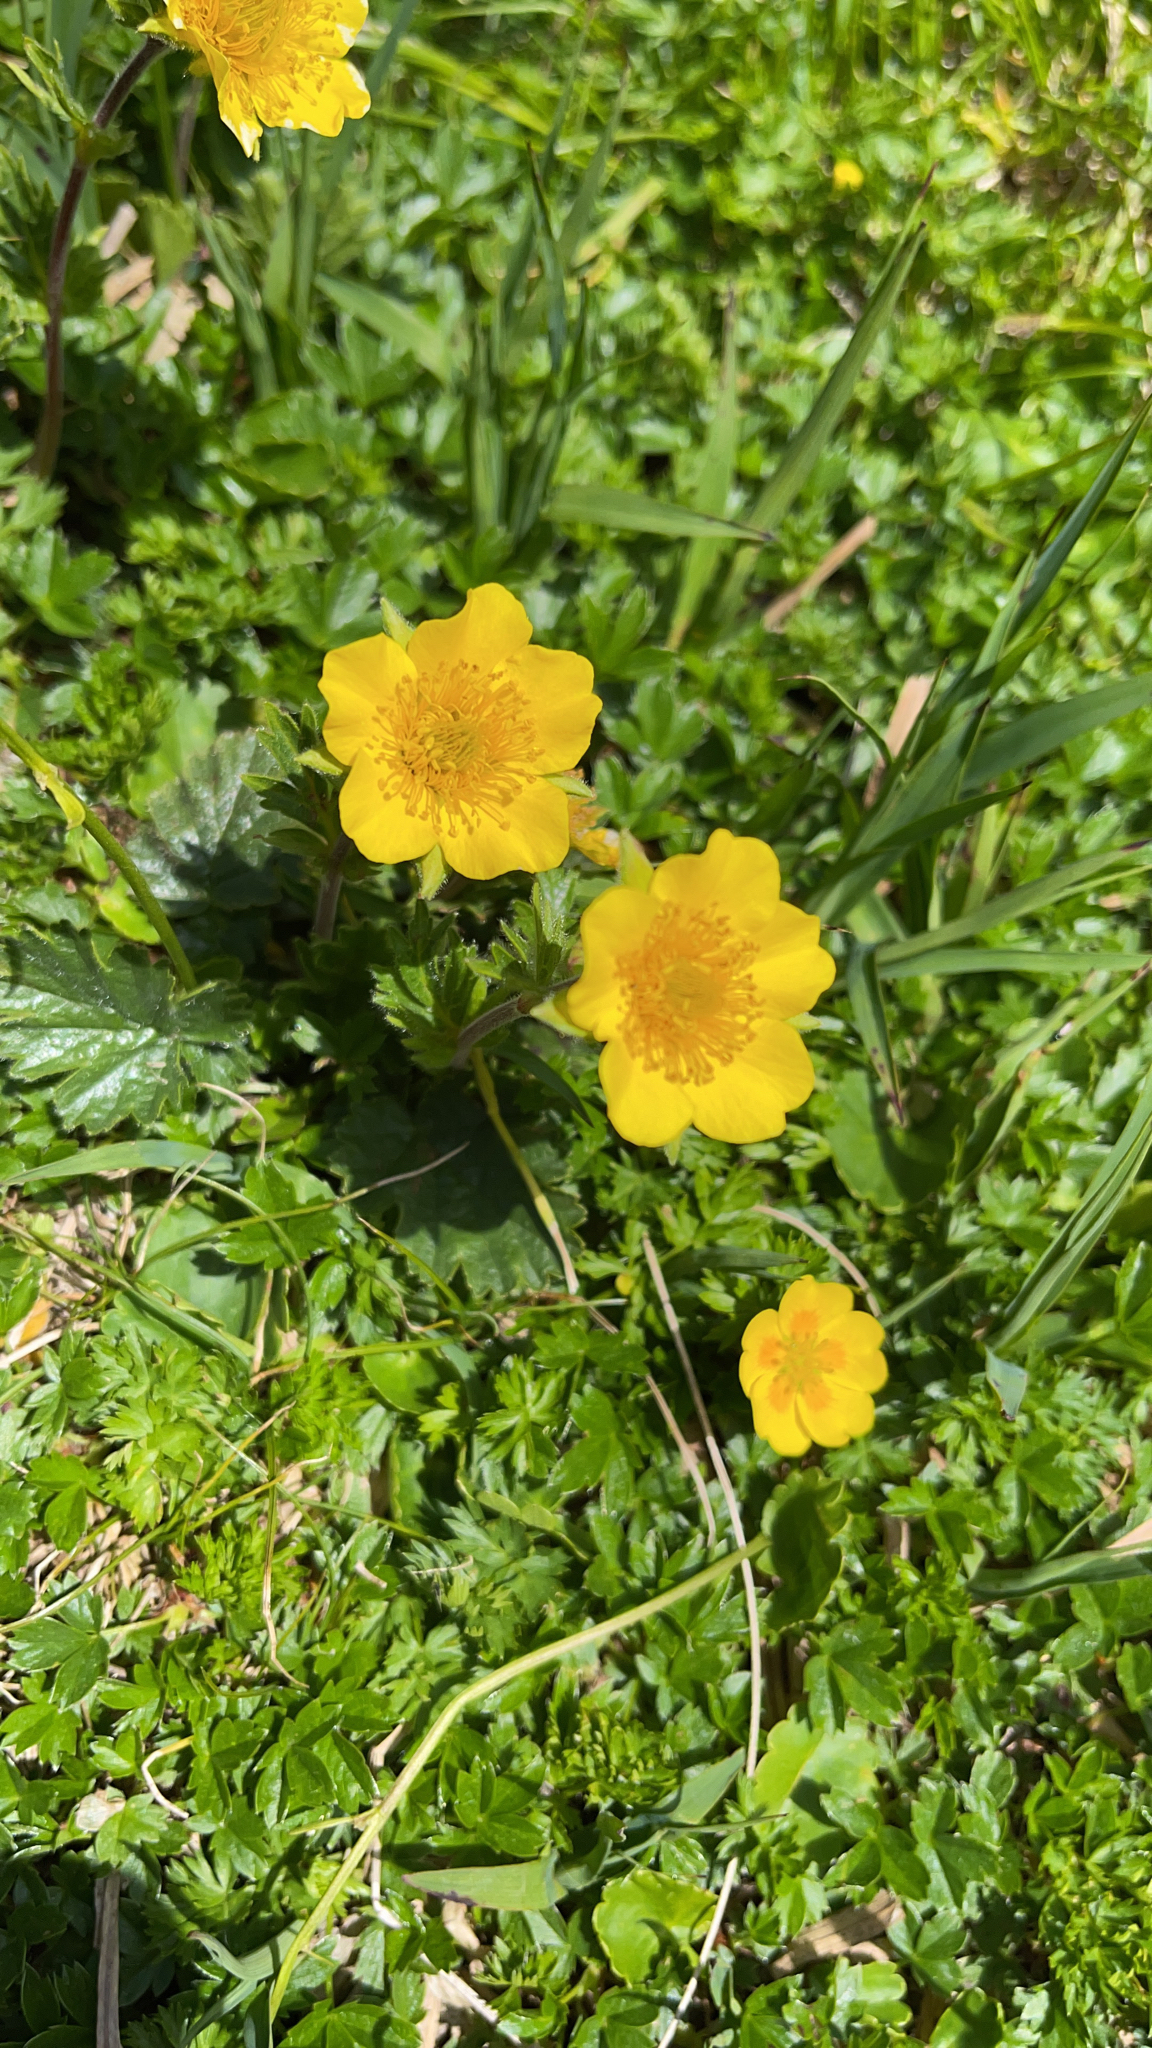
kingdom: Plantae
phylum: Tracheophyta
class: Magnoliopsida
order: Rosales
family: Rosaceae
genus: Geum
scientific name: Geum montanum
